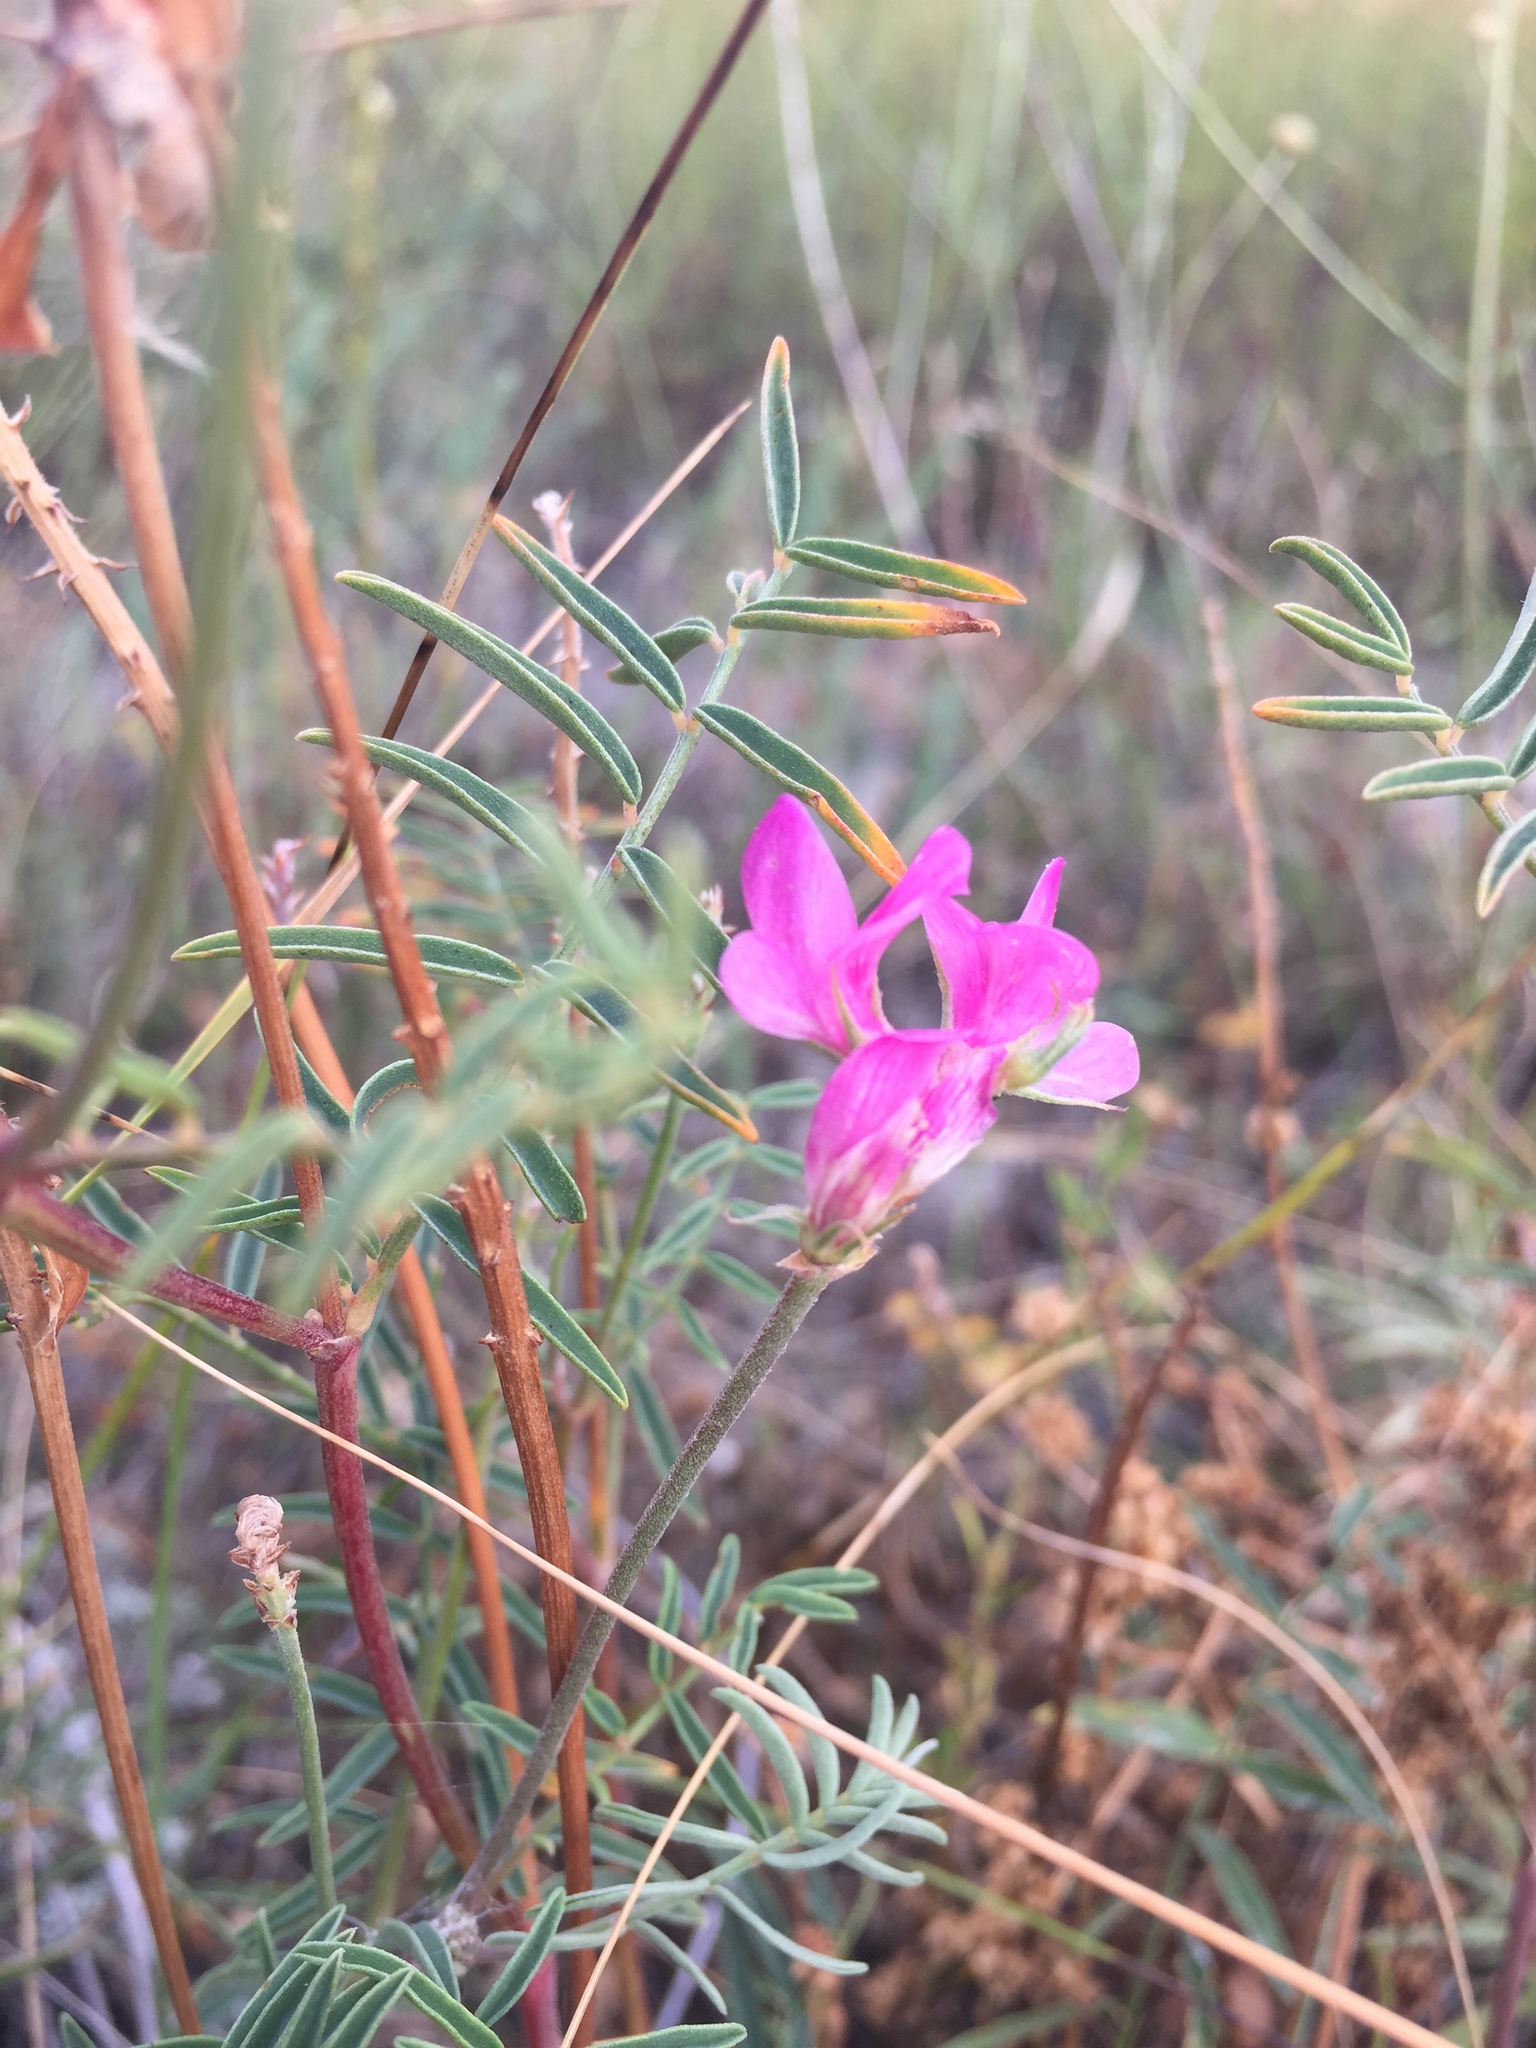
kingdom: Plantae
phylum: Tracheophyta
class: Magnoliopsida
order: Fabales
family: Fabaceae
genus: Hedysarum
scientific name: Hedysarum ucrainicum
